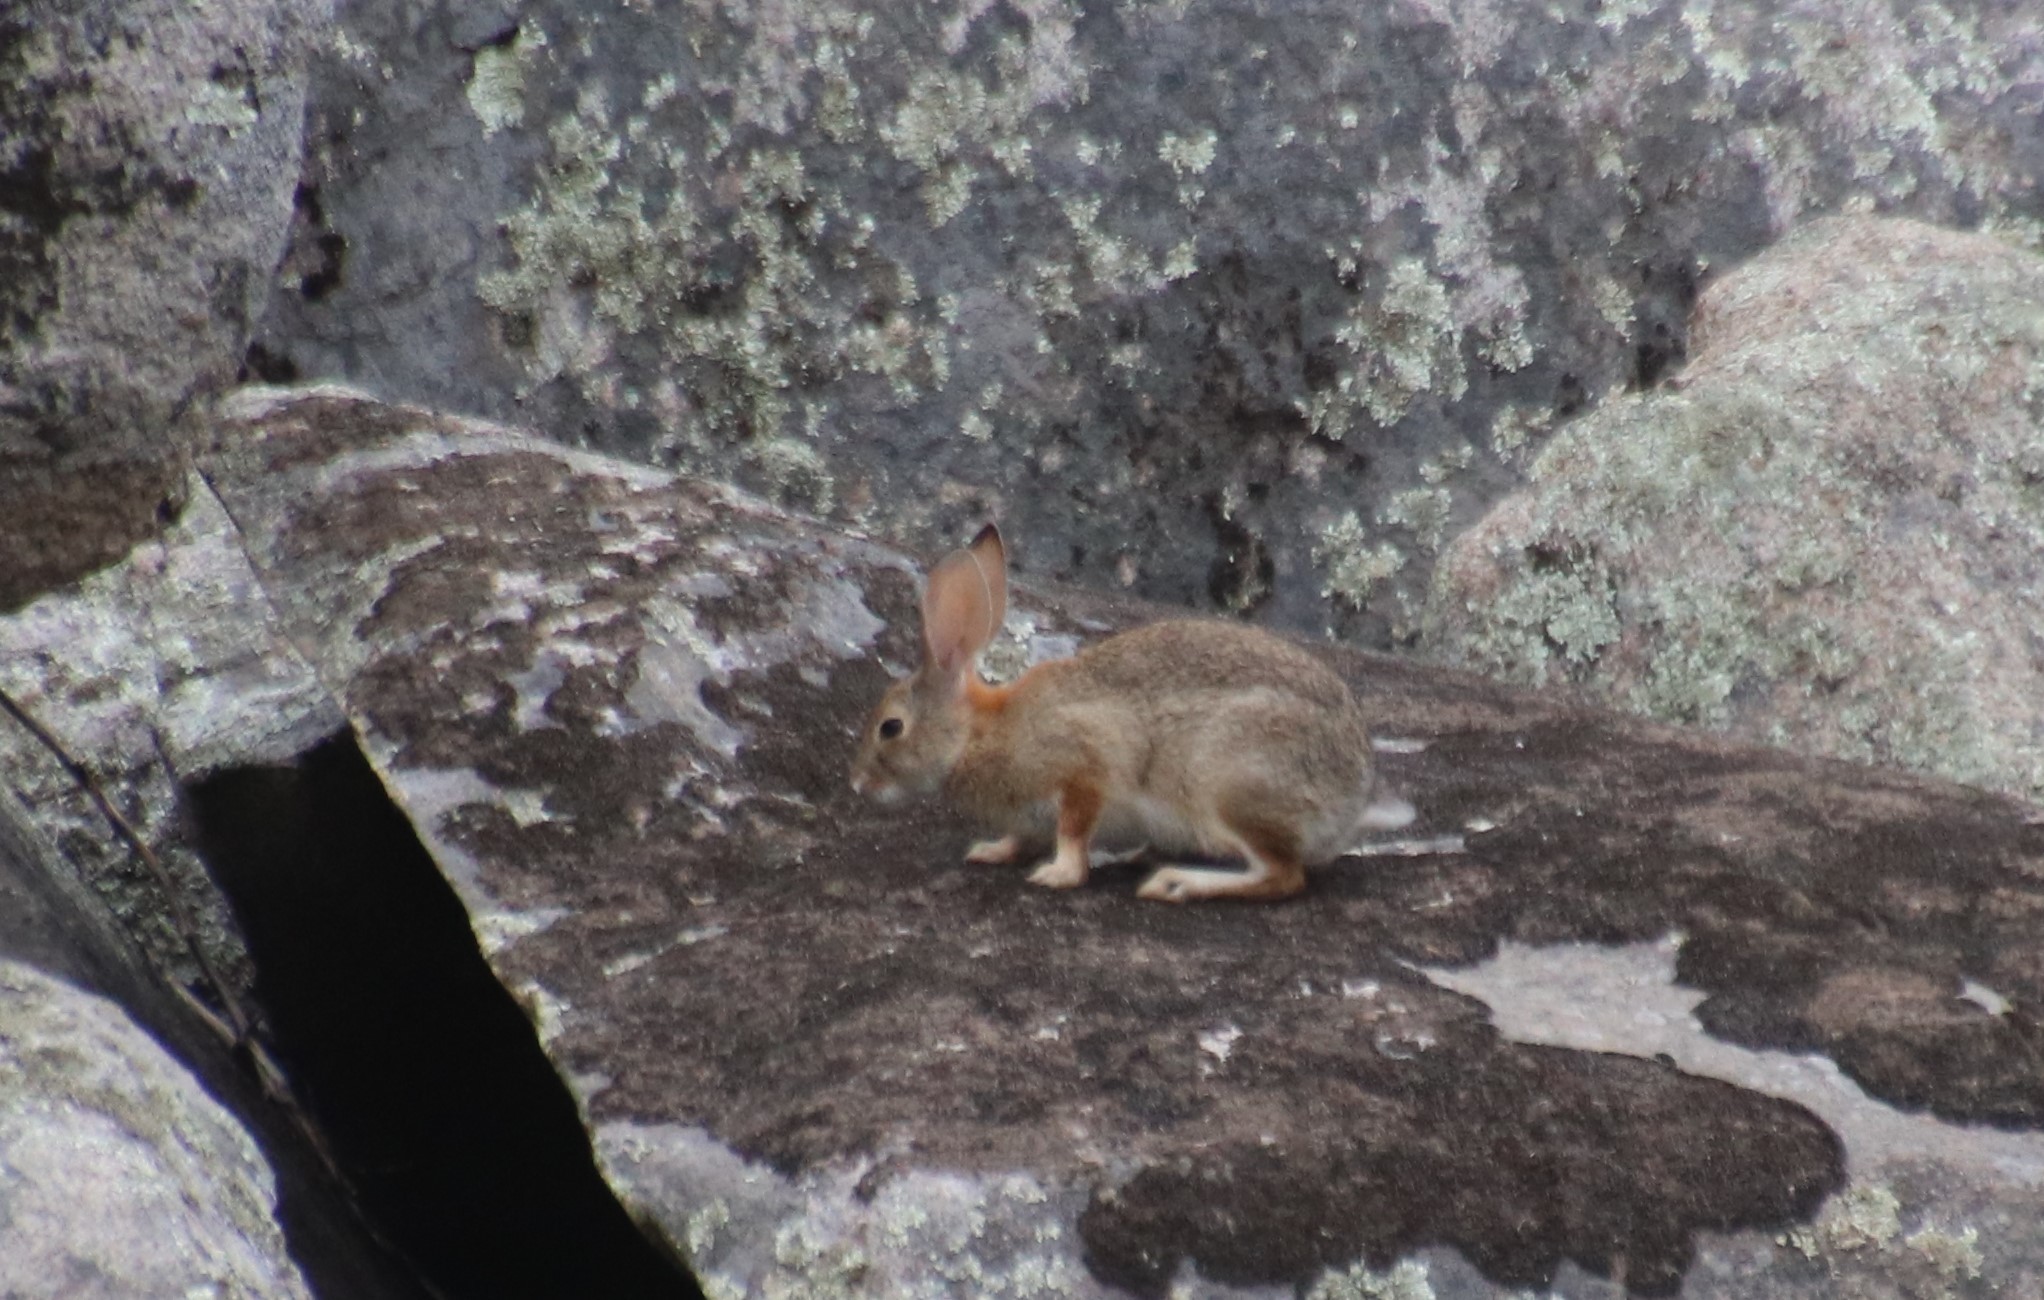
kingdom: Animalia
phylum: Chordata
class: Mammalia
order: Lagomorpha
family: Leporidae
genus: Sylvilagus
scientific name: Sylvilagus audubonii
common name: Desert cottontail
